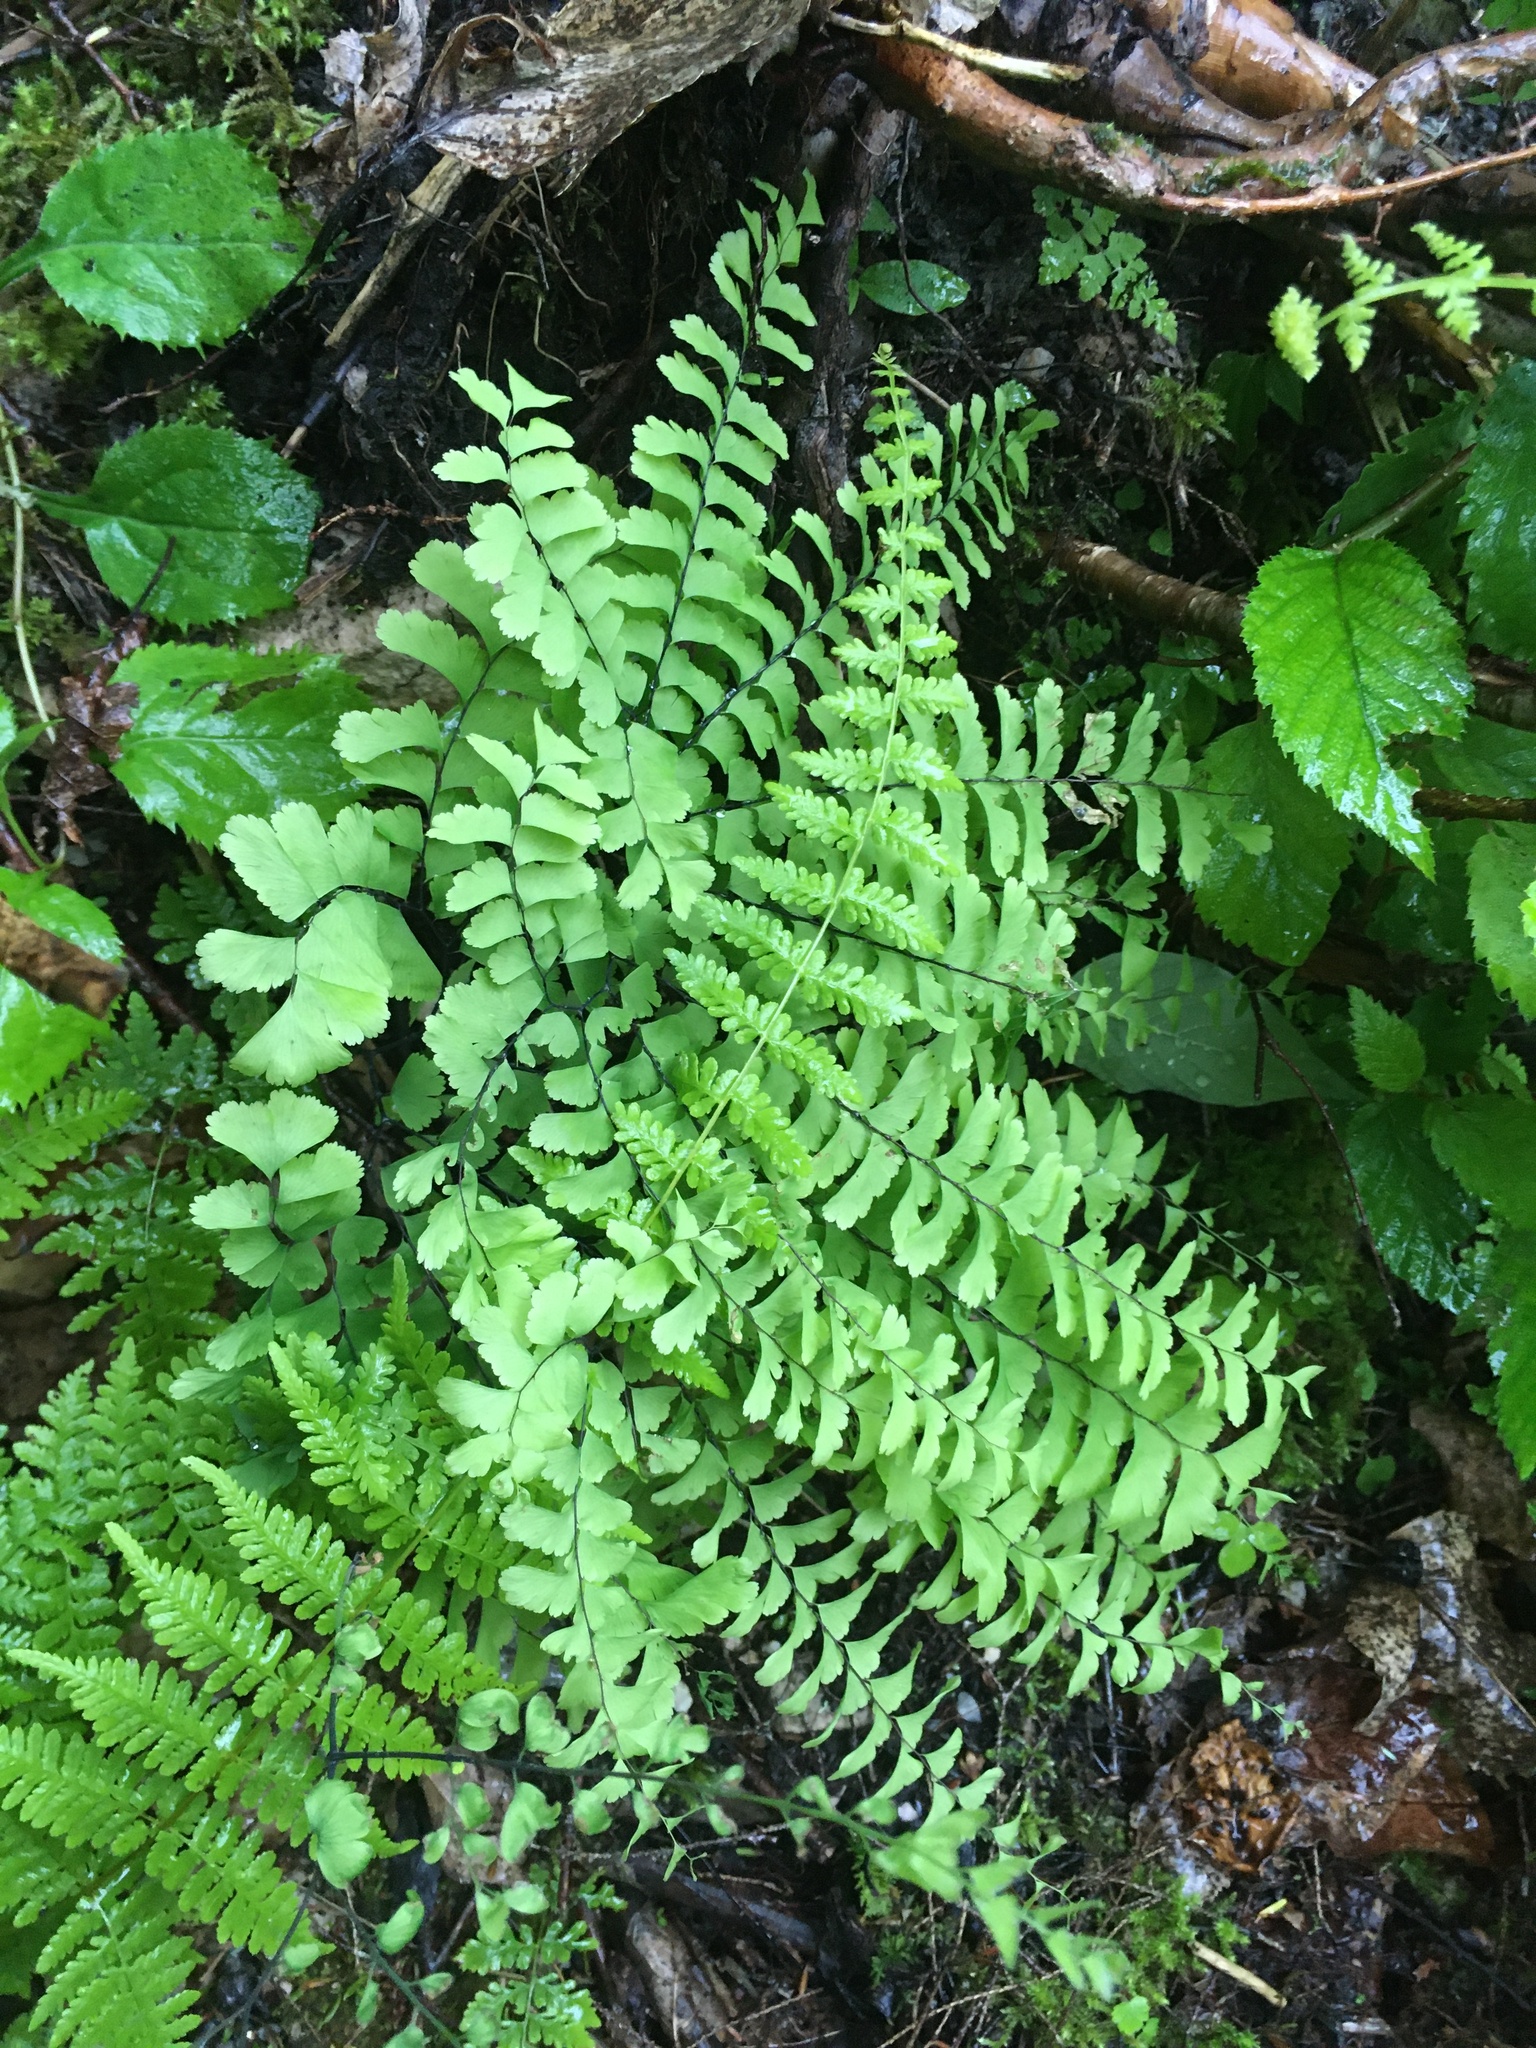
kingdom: Plantae
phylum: Tracheophyta
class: Polypodiopsida
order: Polypodiales
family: Pteridaceae
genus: Adiantum
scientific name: Adiantum pedatum
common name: Five-finger fern
